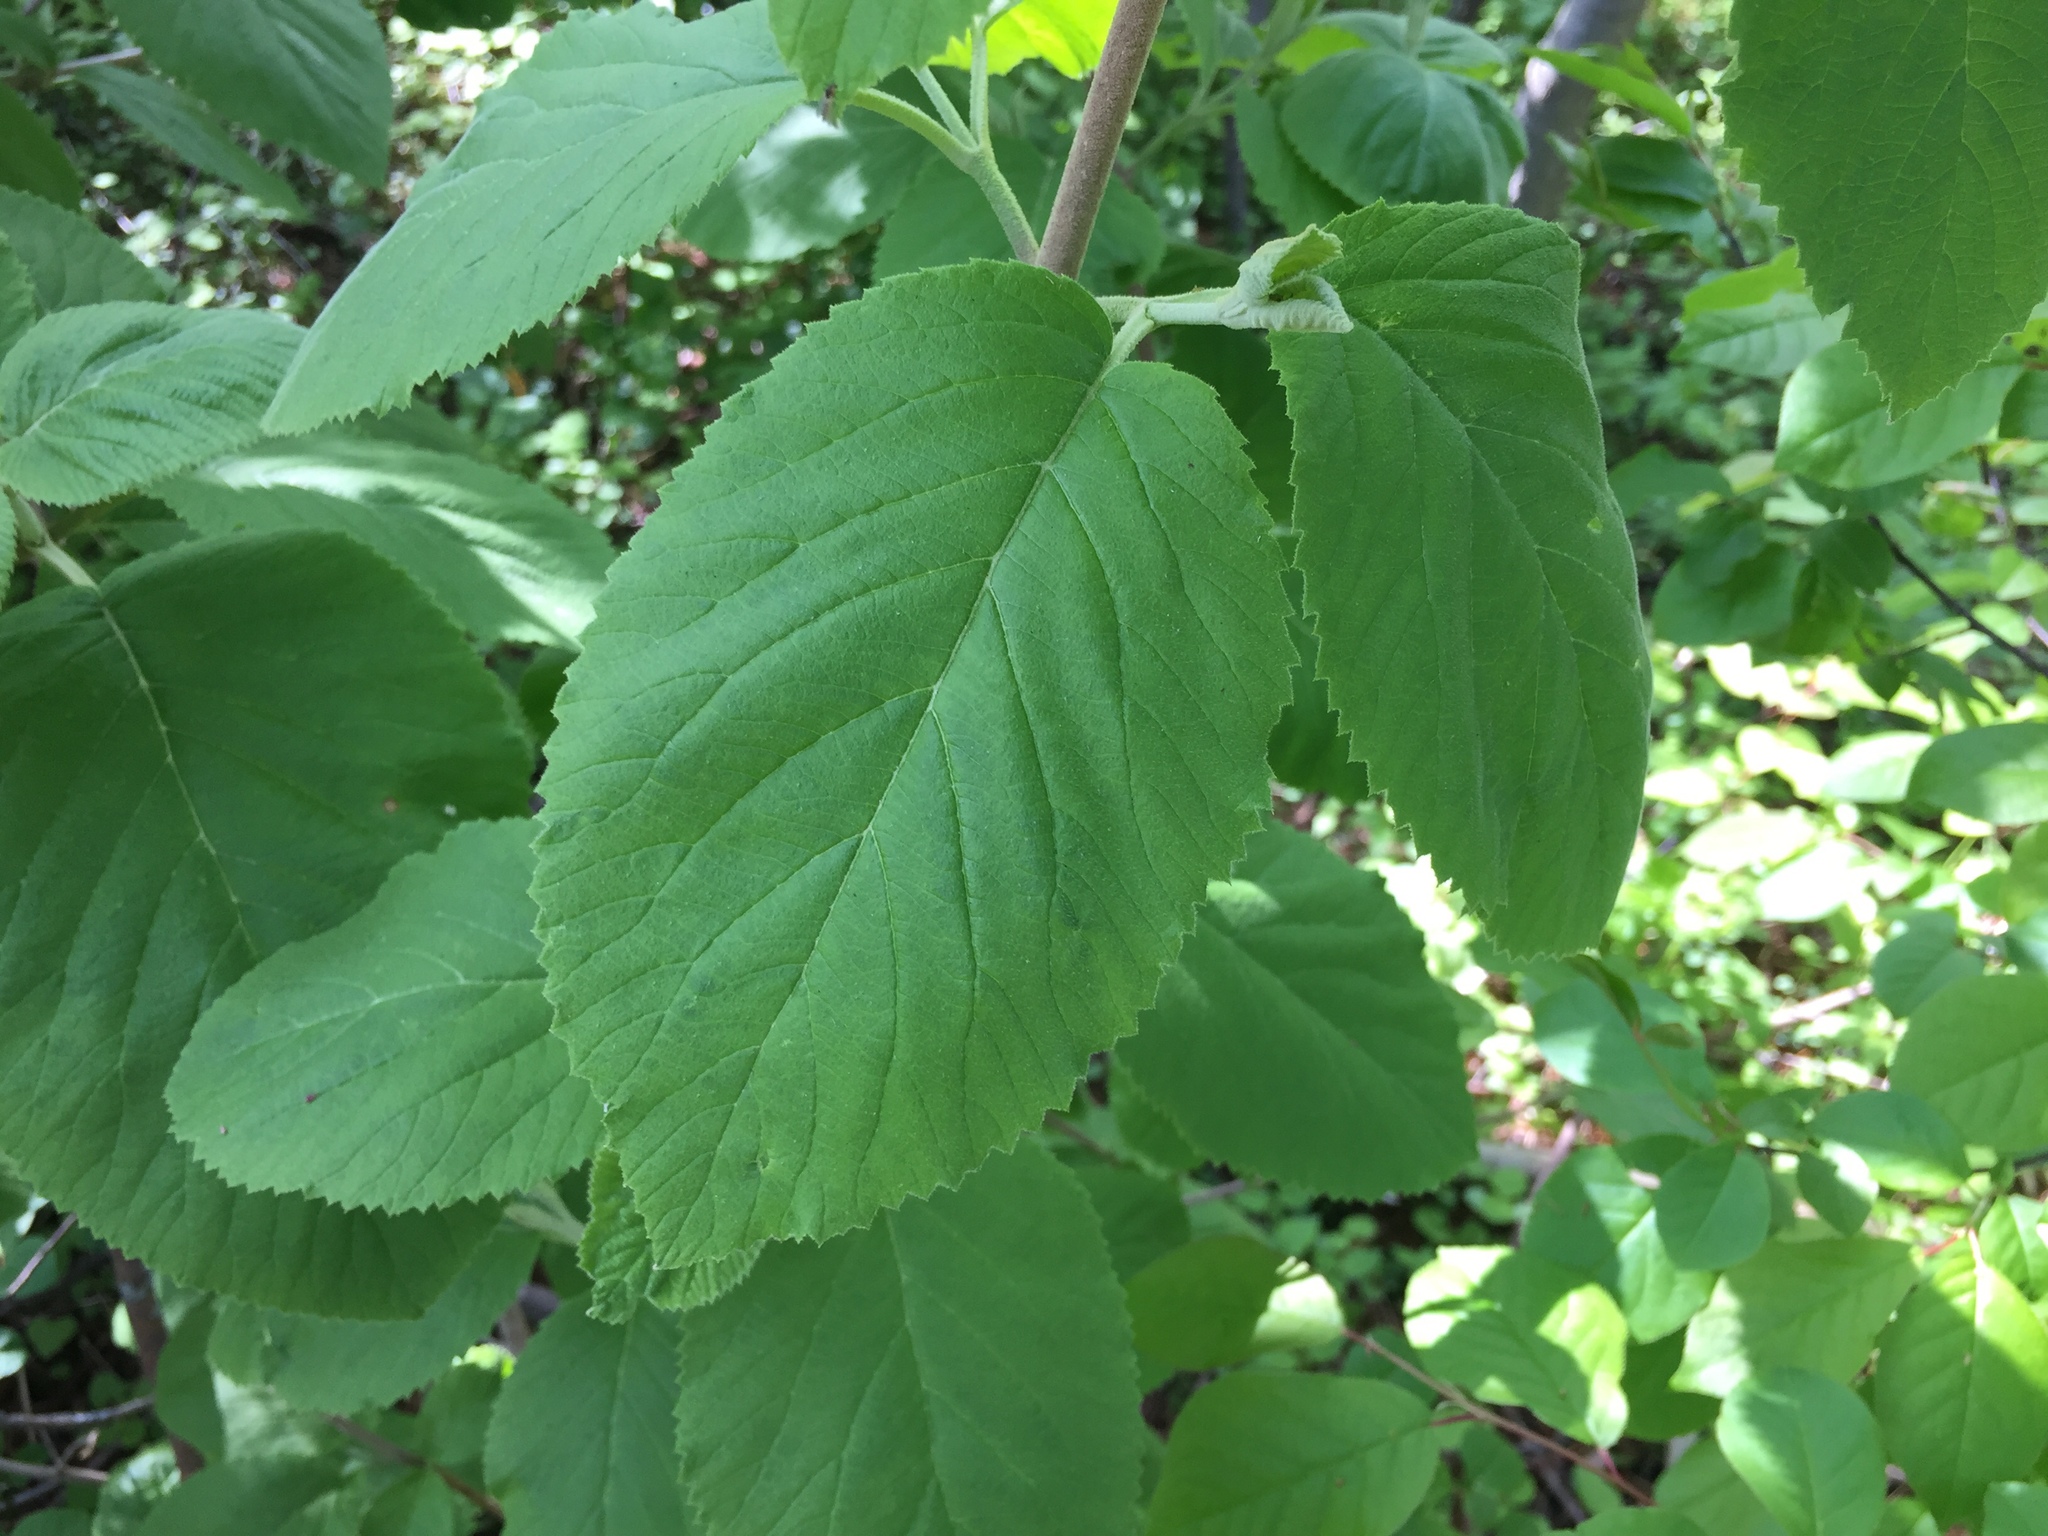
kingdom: Plantae
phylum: Tracheophyta
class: Magnoliopsida
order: Dipsacales
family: Viburnaceae
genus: Viburnum
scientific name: Viburnum lantana
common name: Wayfaring tree
